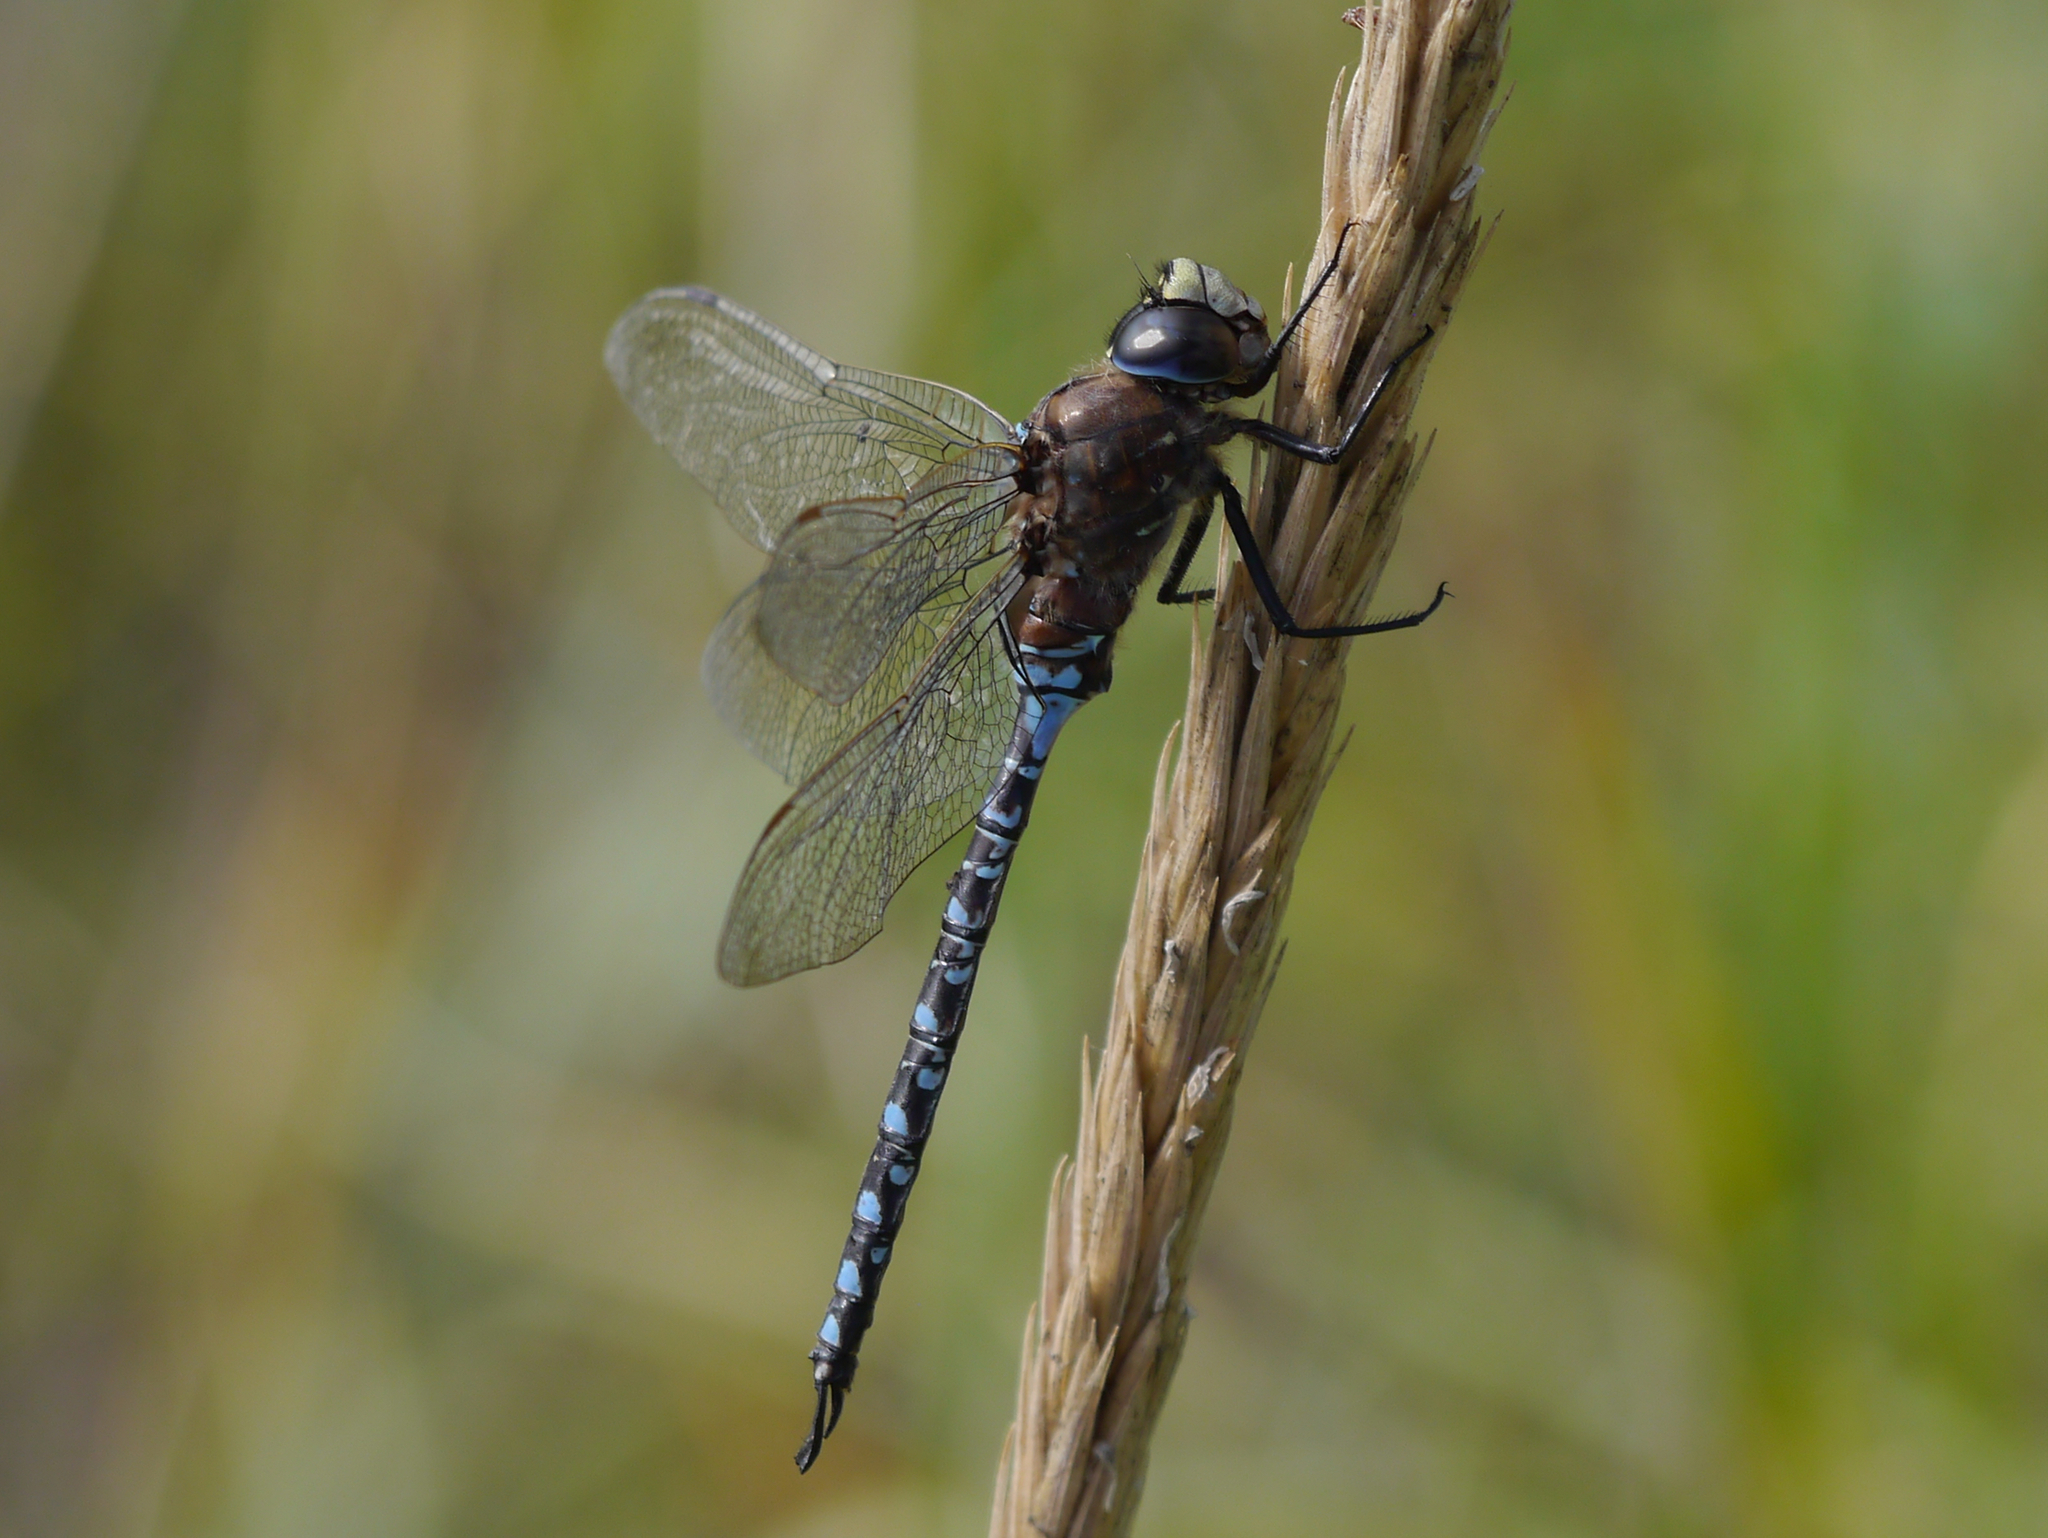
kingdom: Animalia
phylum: Arthropoda
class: Insecta
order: Odonata
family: Aeshnidae
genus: Aeshna
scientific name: Aeshna interrupta
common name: Variable darner
